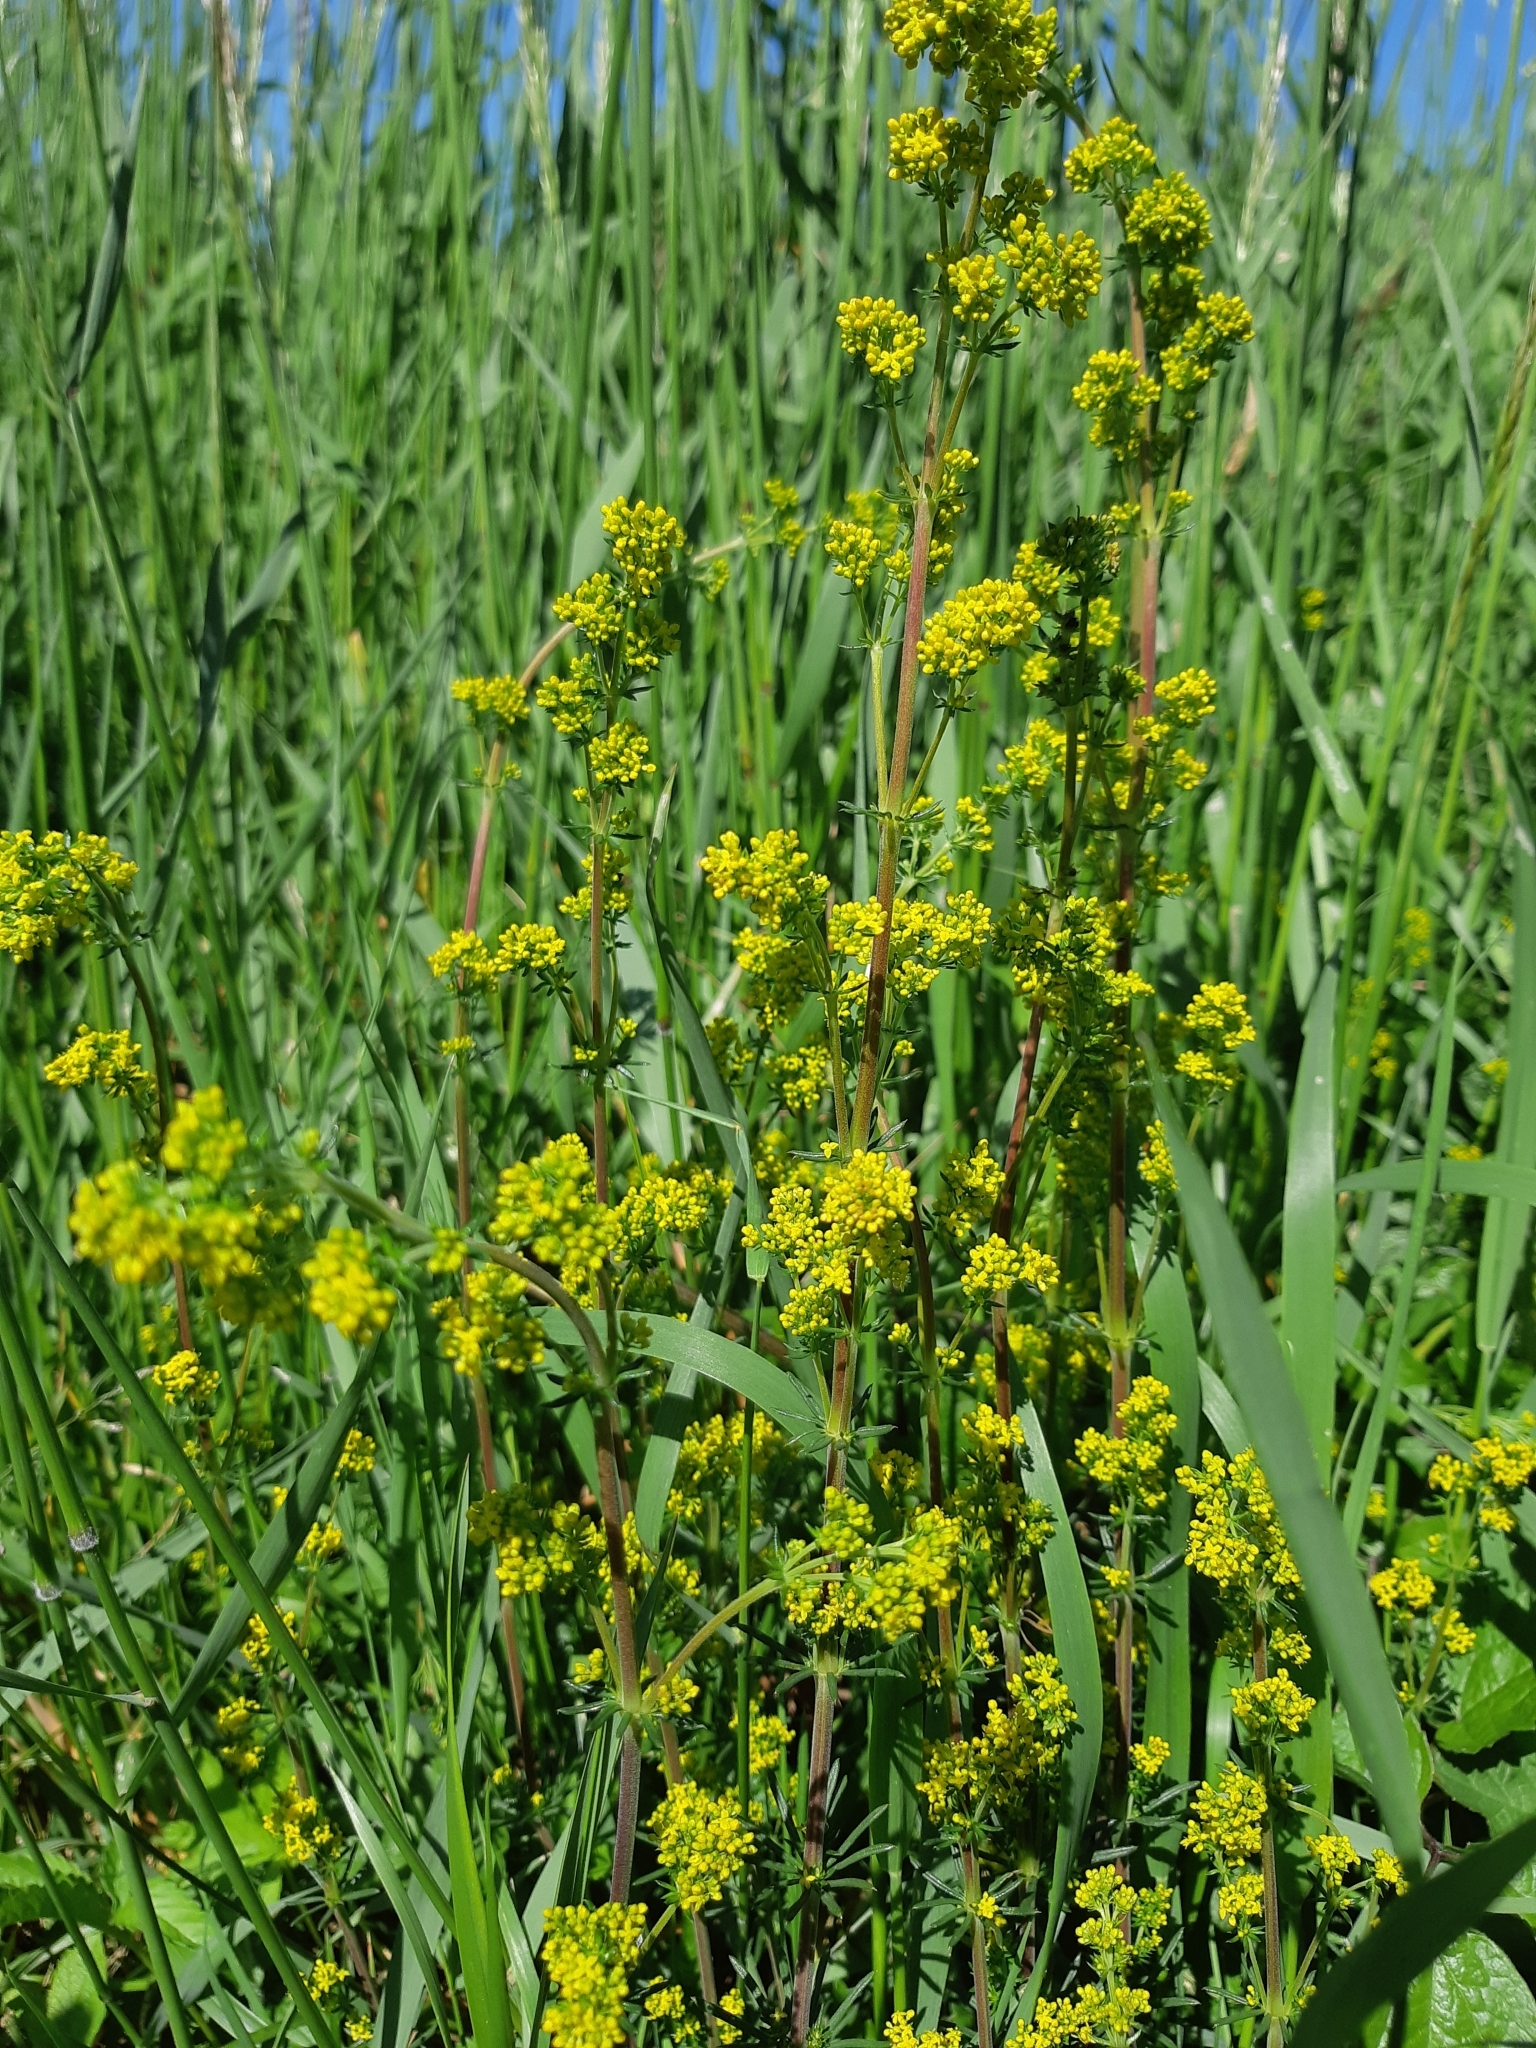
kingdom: Plantae
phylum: Tracheophyta
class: Magnoliopsida
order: Gentianales
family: Rubiaceae
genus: Galium
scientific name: Galium verum
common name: Lady's bedstraw
